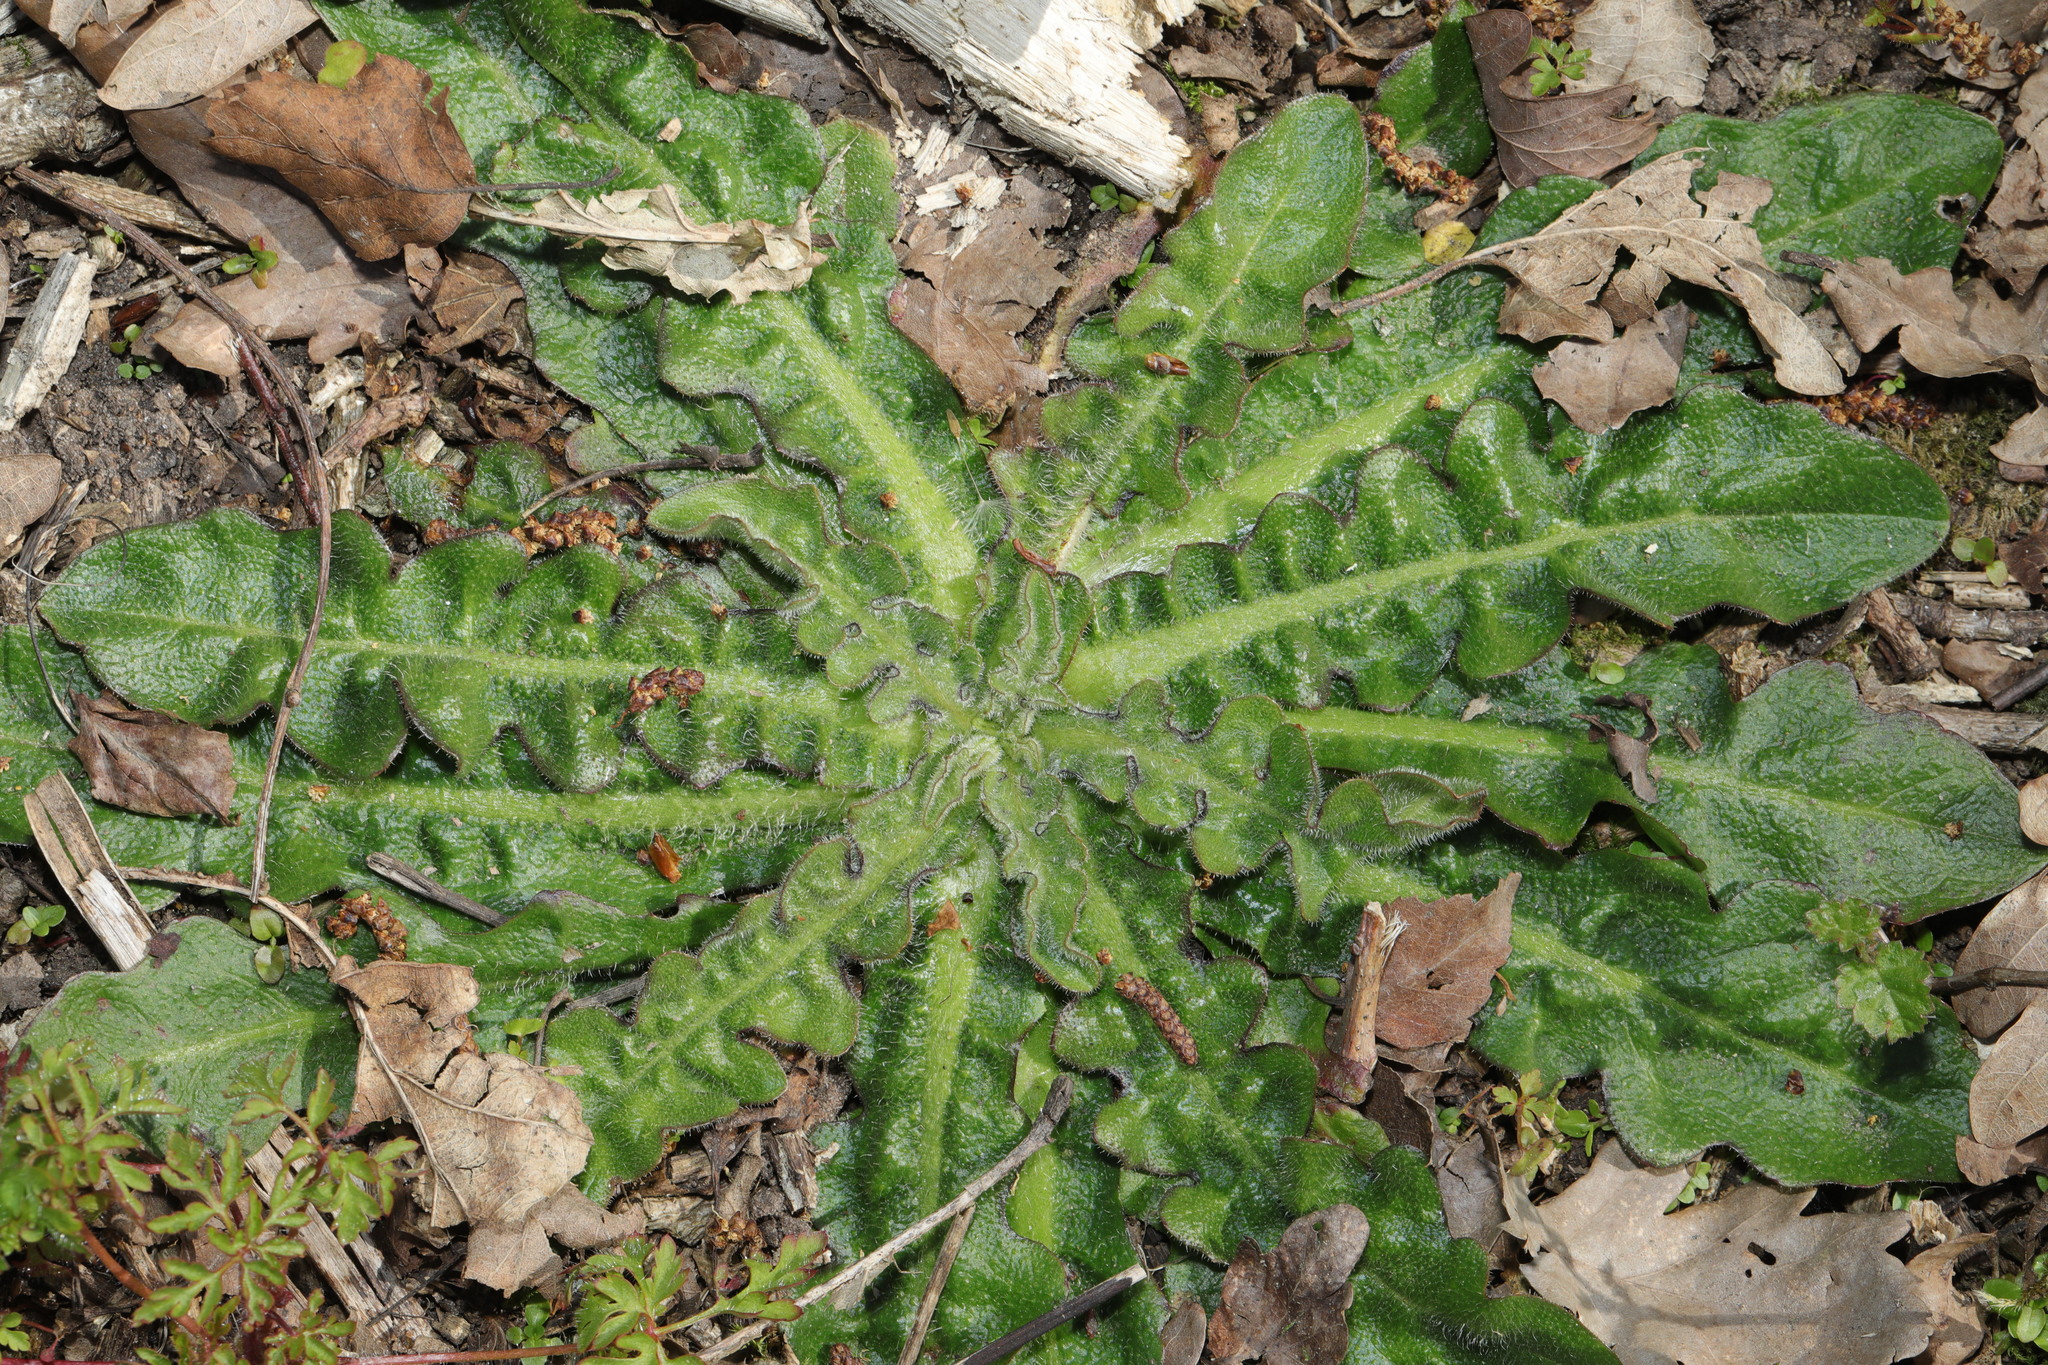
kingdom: Plantae
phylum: Tracheophyta
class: Magnoliopsida
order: Asterales
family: Asteraceae
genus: Hypochaeris
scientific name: Hypochaeris radicata
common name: Flatweed
